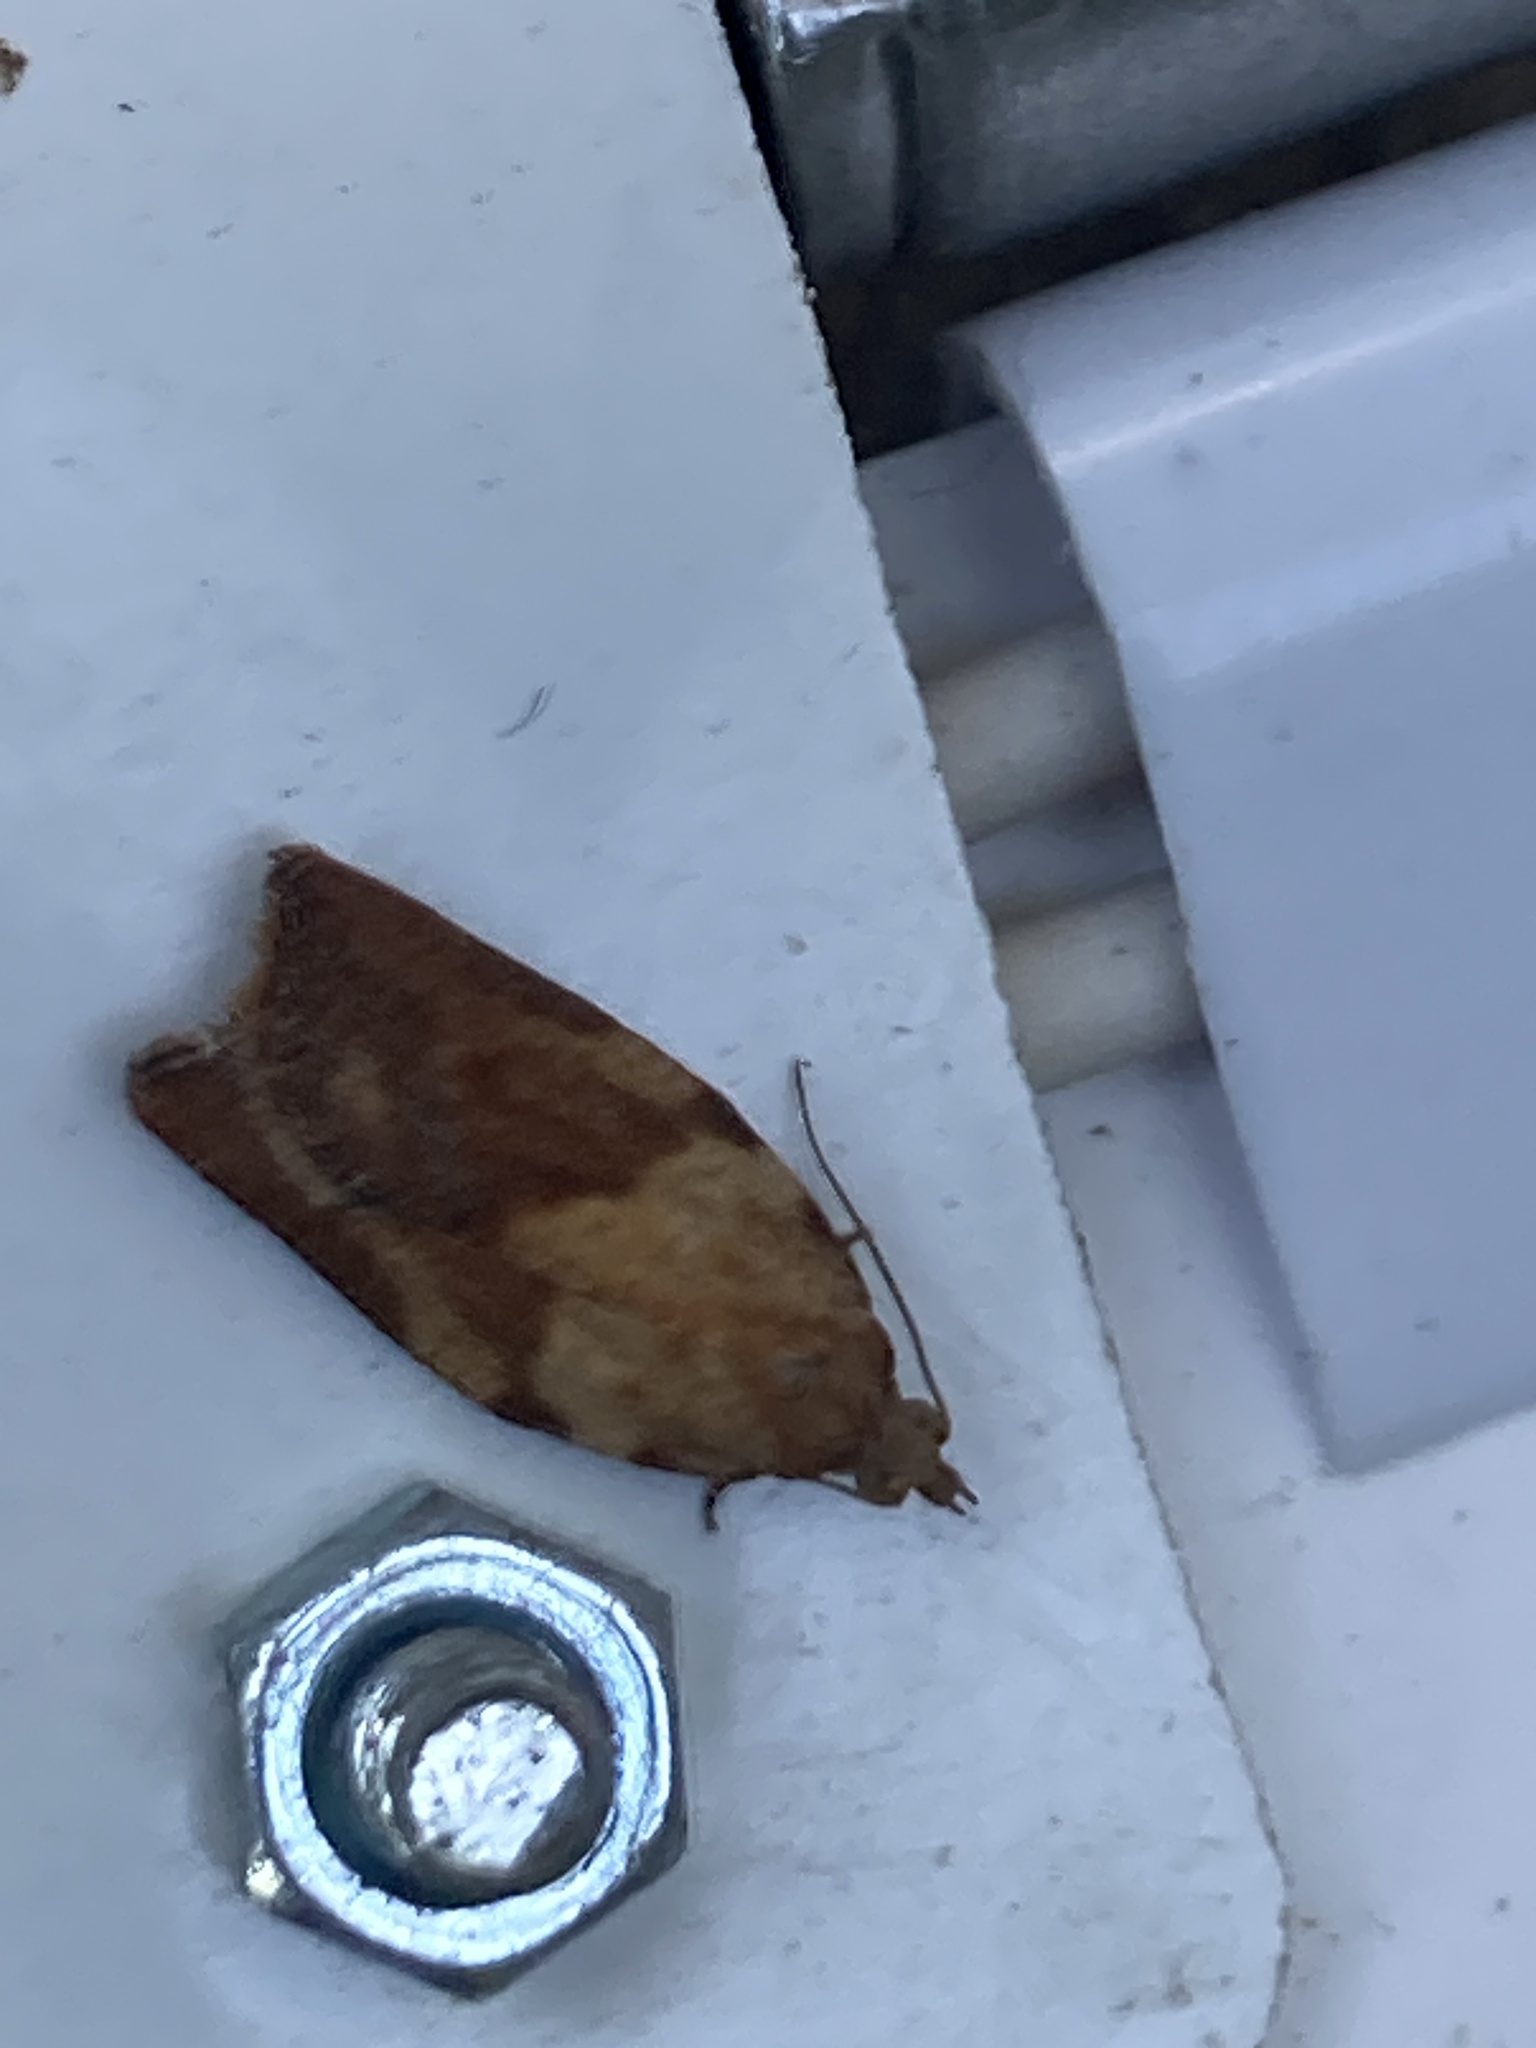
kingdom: Animalia
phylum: Arthropoda
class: Insecta
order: Lepidoptera
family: Tortricidae
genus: Epiphyas
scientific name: Epiphyas postvittana
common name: Light brown apple moth
